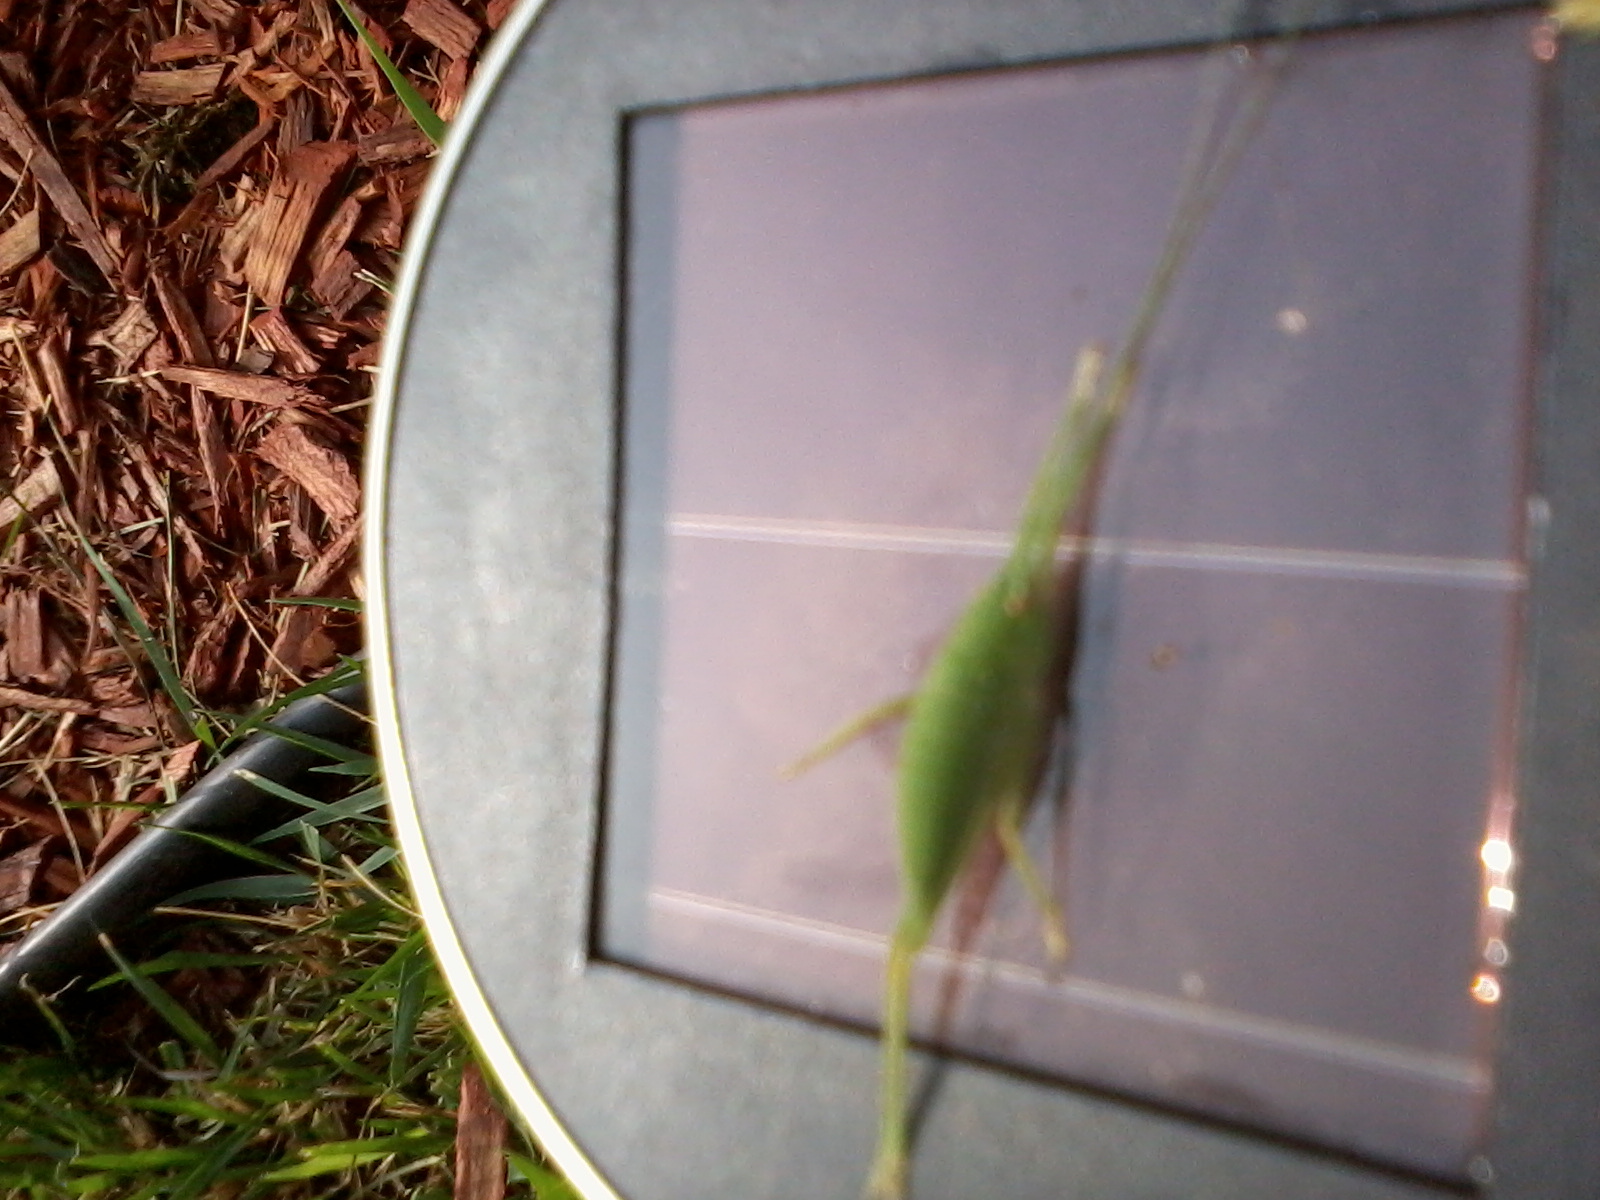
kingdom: Animalia
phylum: Arthropoda
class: Insecta
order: Orthoptera
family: Tettigoniidae
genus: Pterophylla
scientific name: Pterophylla camellifolia
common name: Common true katydid
